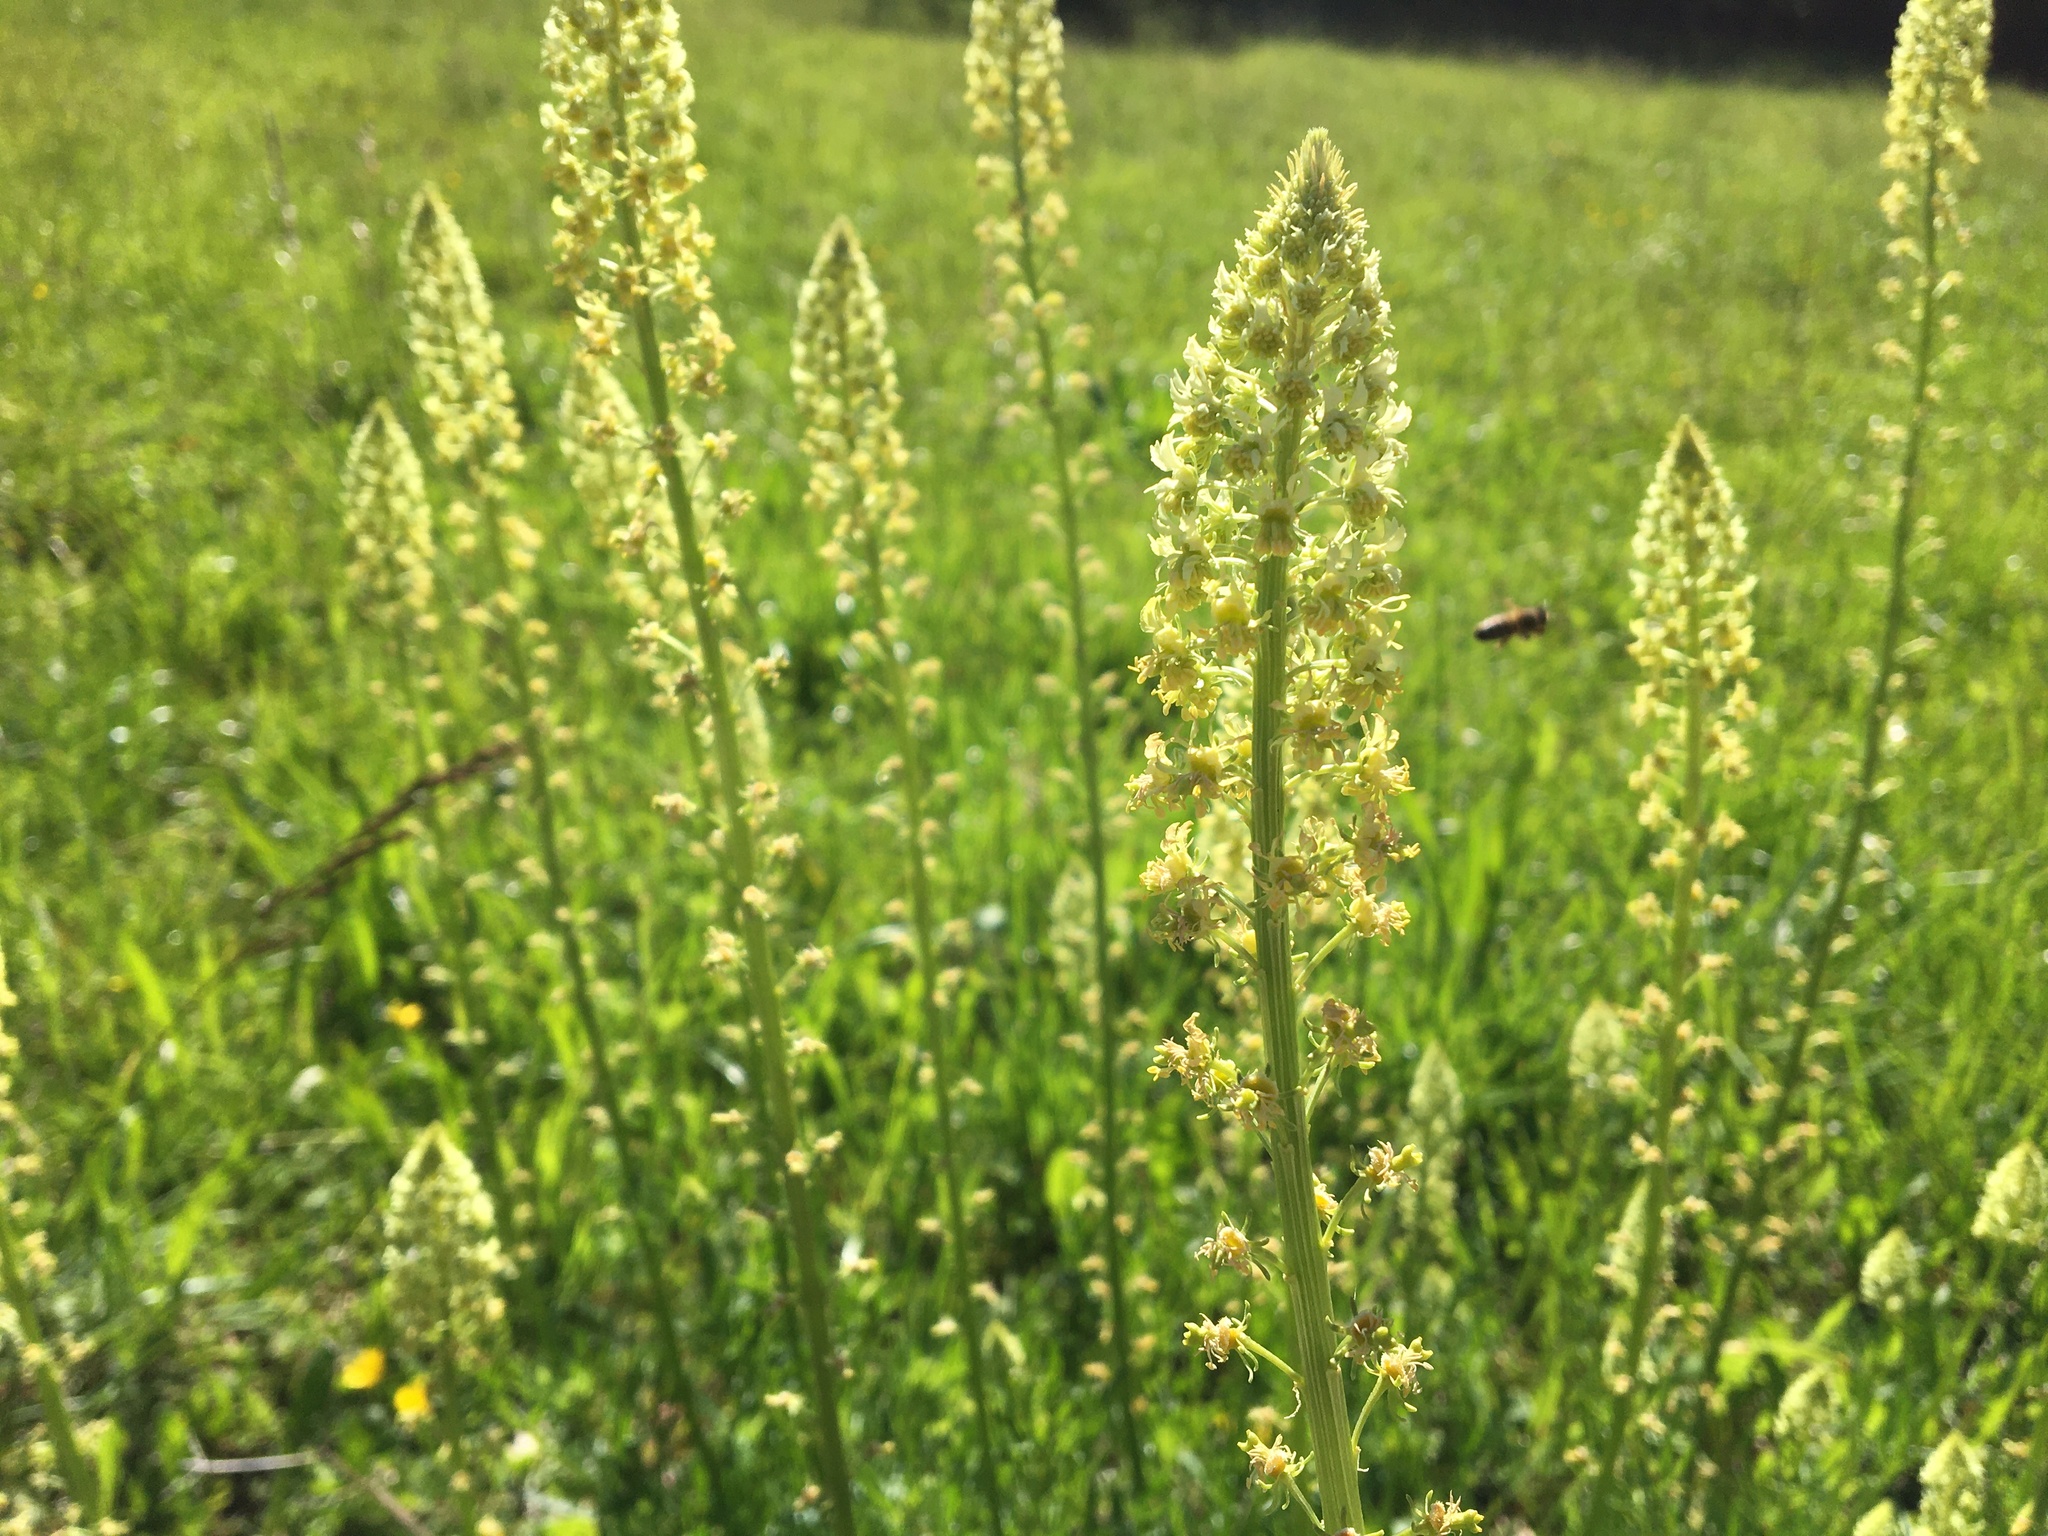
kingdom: Plantae
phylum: Tracheophyta
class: Magnoliopsida
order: Brassicales
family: Resedaceae
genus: Reseda
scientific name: Reseda lutea
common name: Wild mignonette
